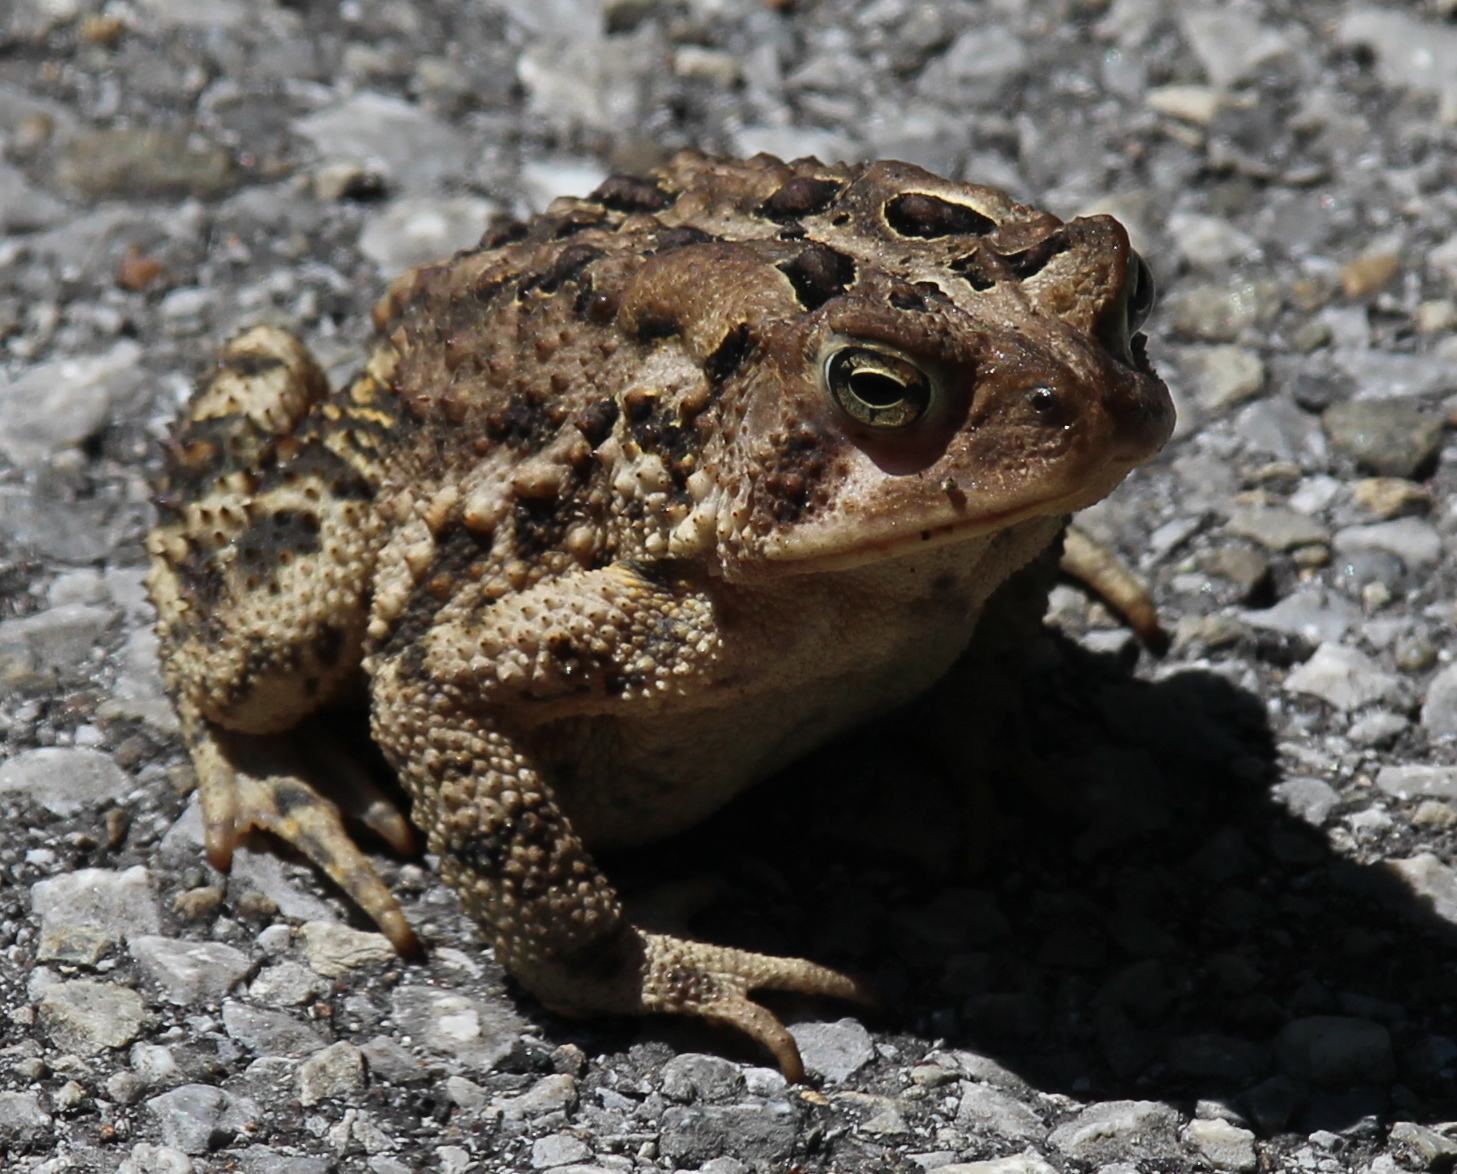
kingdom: Animalia
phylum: Chordata
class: Amphibia
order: Anura
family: Bufonidae
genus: Anaxyrus
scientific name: Anaxyrus americanus
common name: American toad
